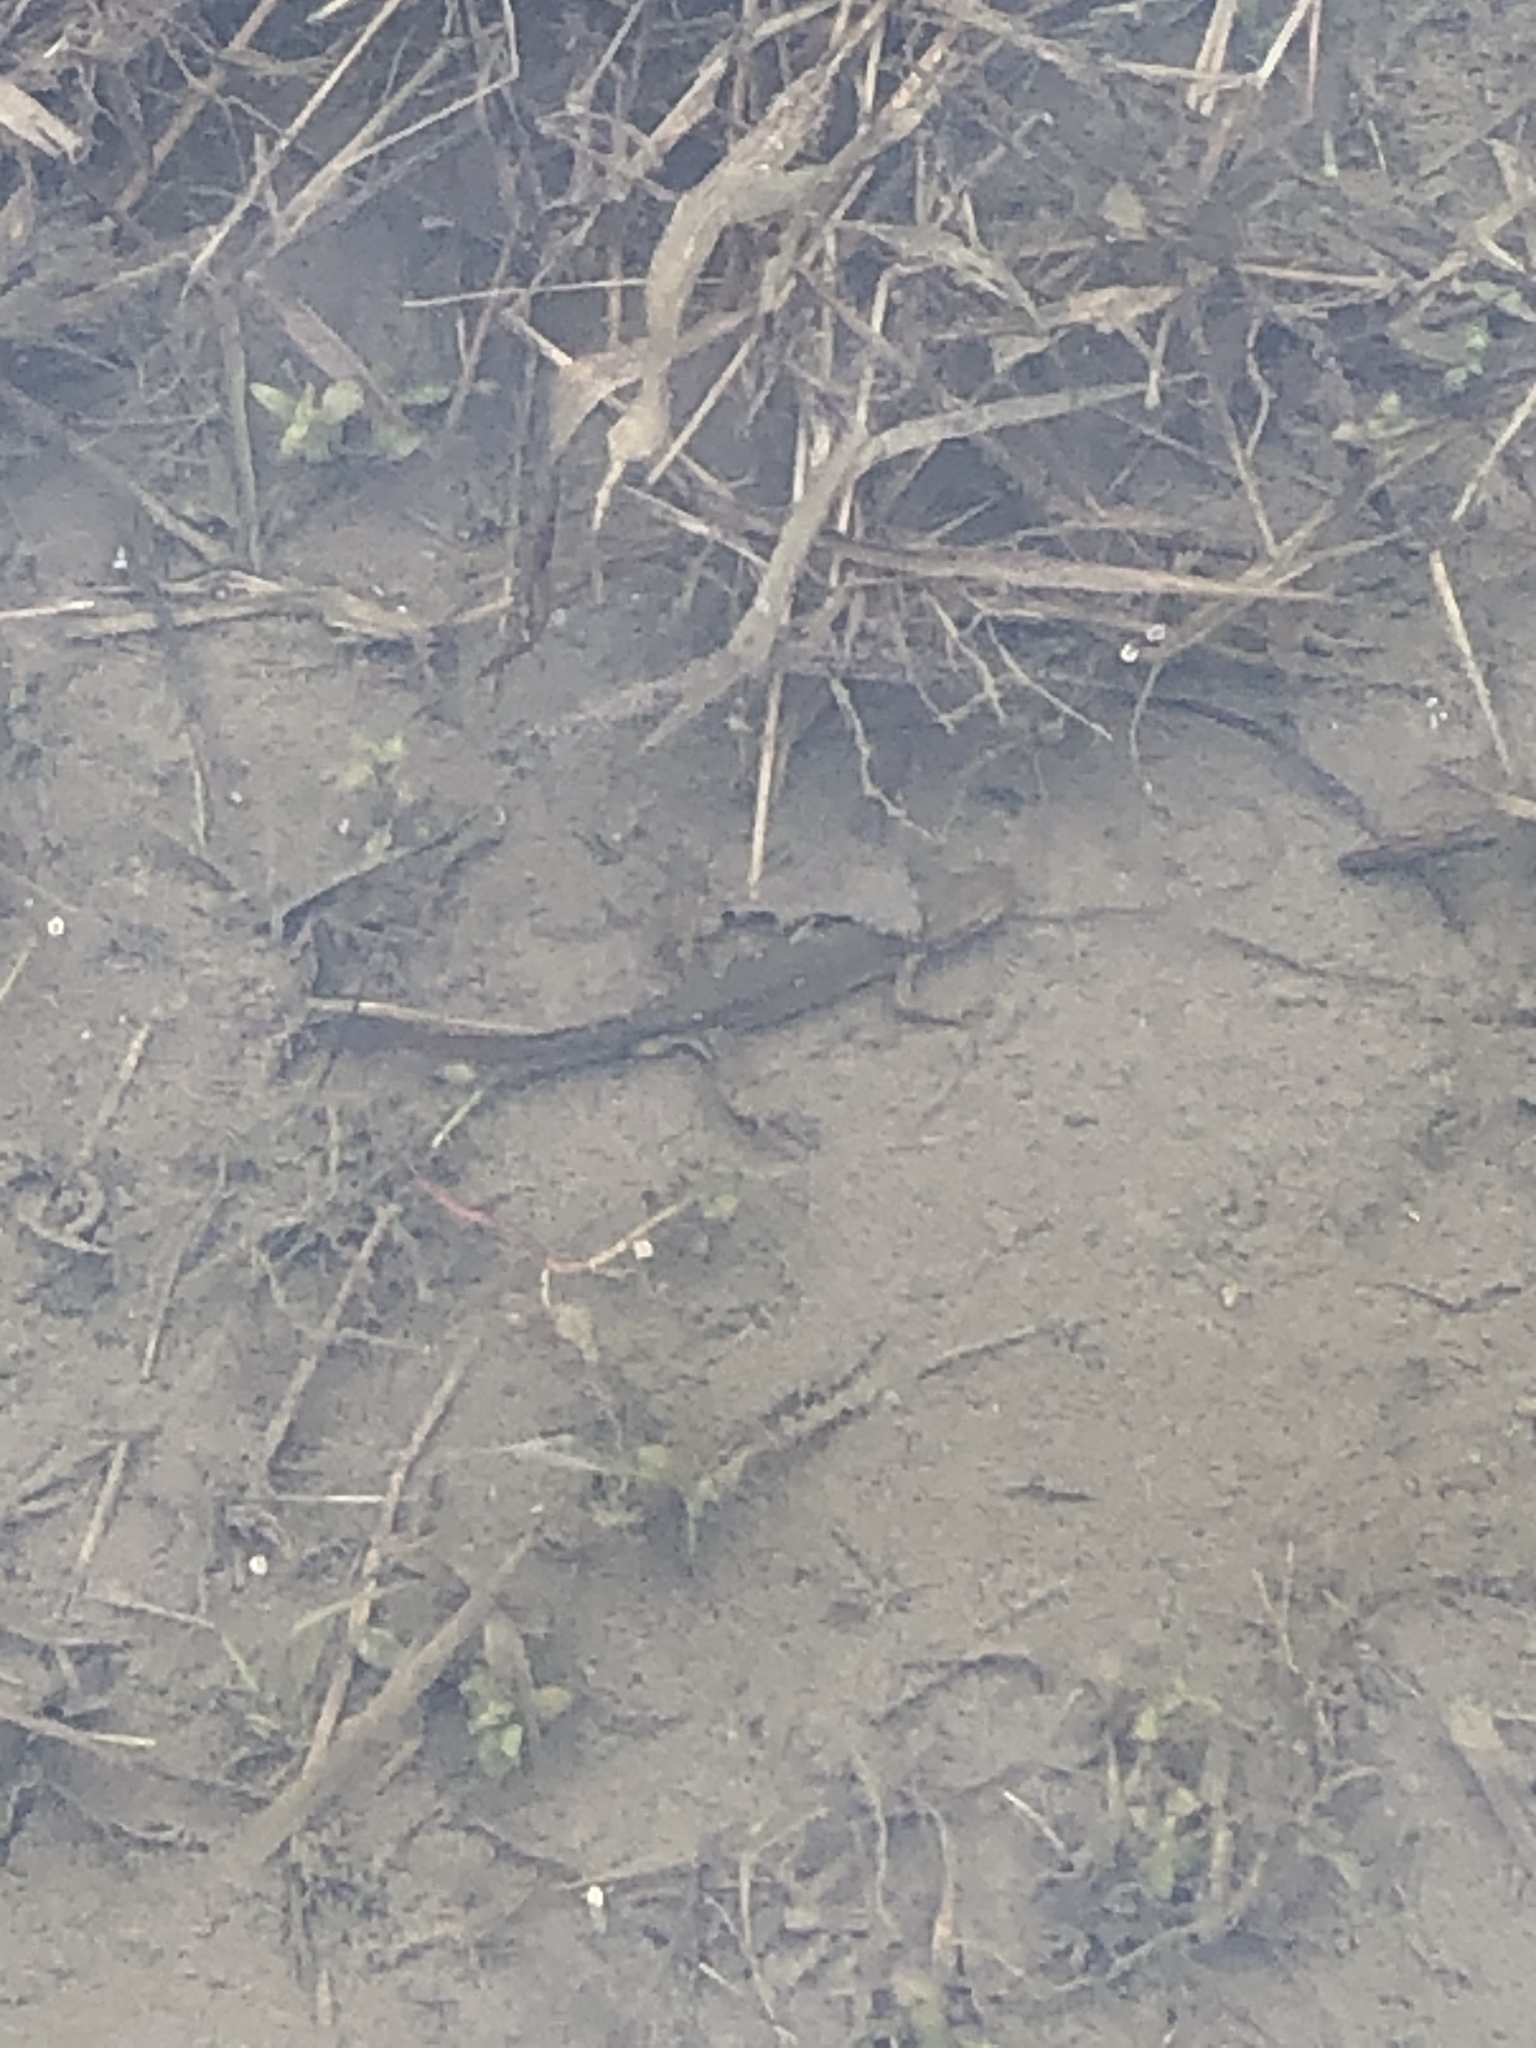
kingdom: Animalia
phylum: Chordata
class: Amphibia
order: Caudata
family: Salamandridae
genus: Notophthalmus
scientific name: Notophthalmus viridescens
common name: Eastern newt
